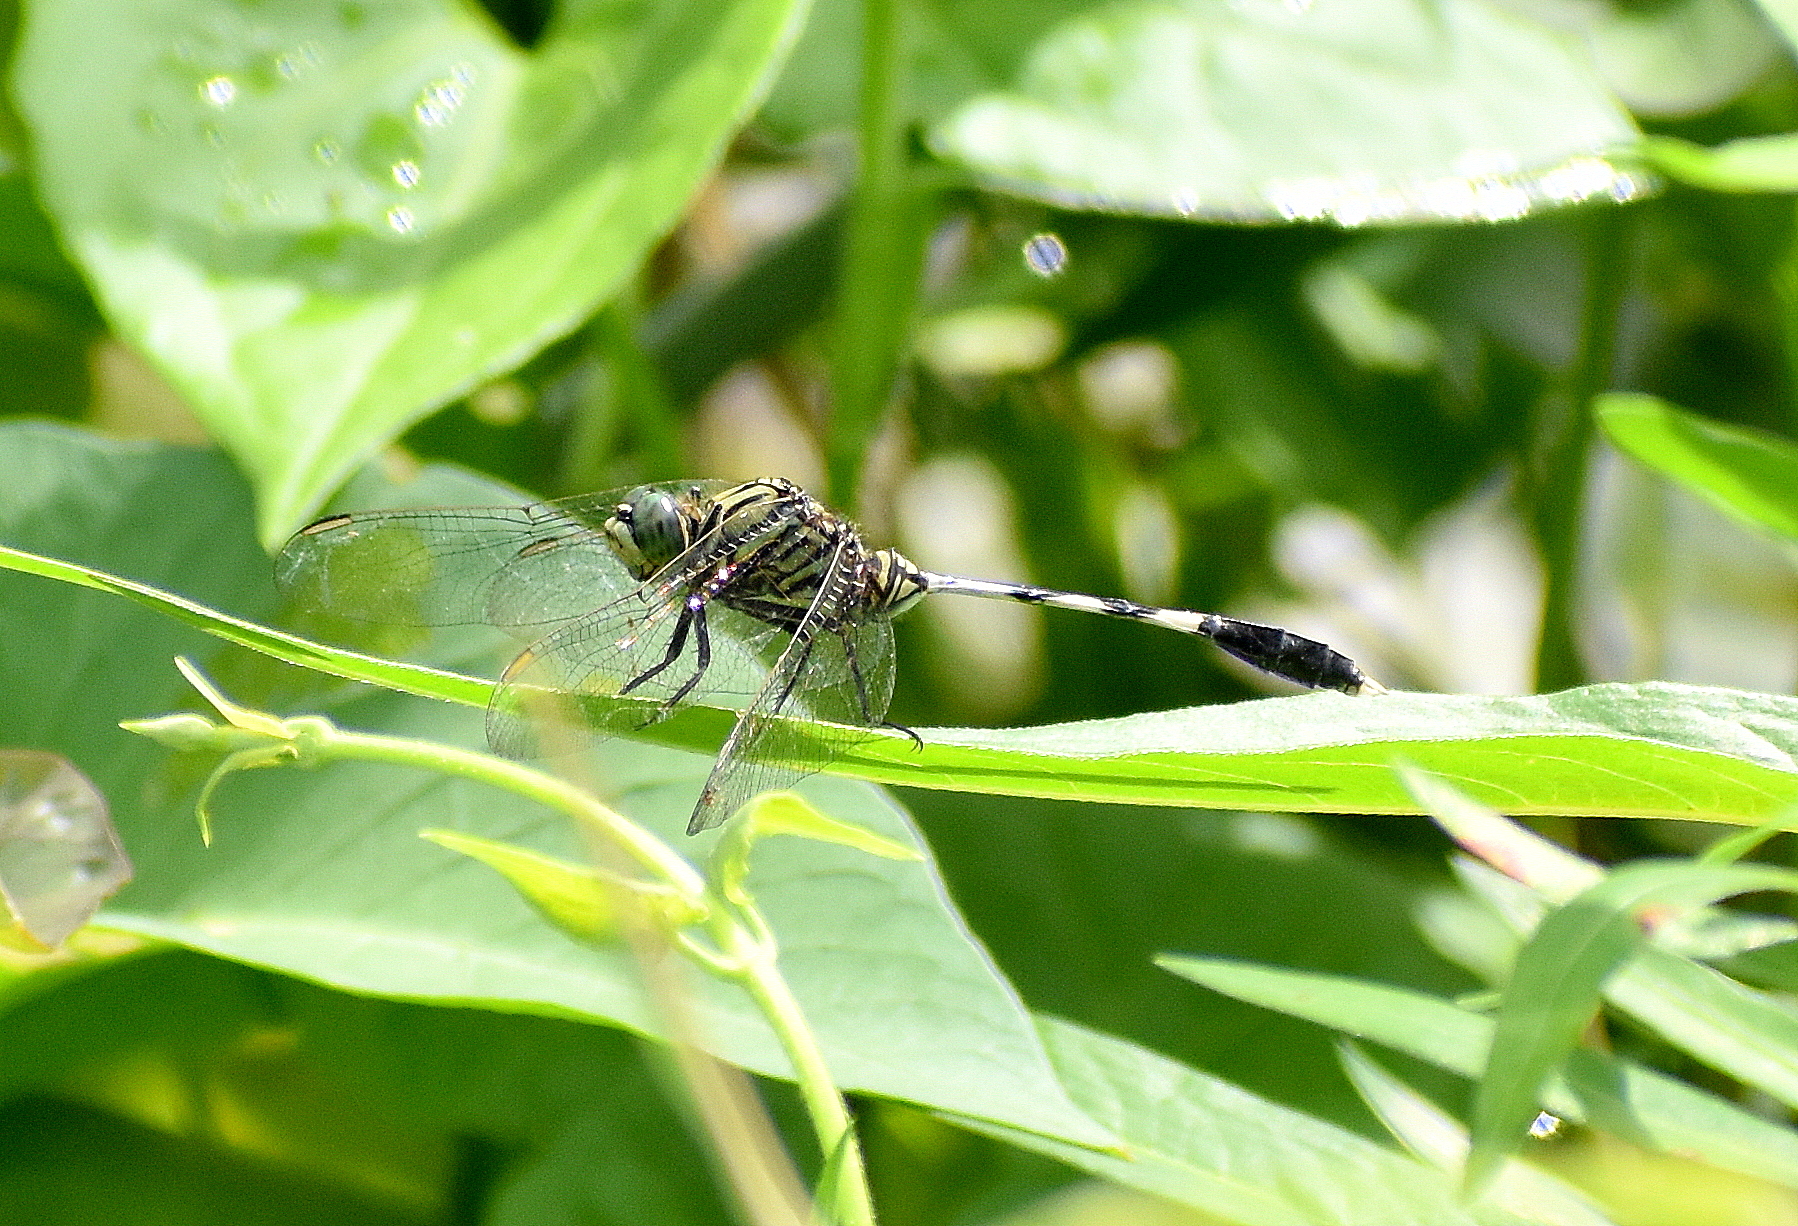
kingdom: Animalia
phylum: Arthropoda
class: Insecta
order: Odonata
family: Libellulidae
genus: Orthetrum
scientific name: Orthetrum sabina
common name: Slender skimmer
